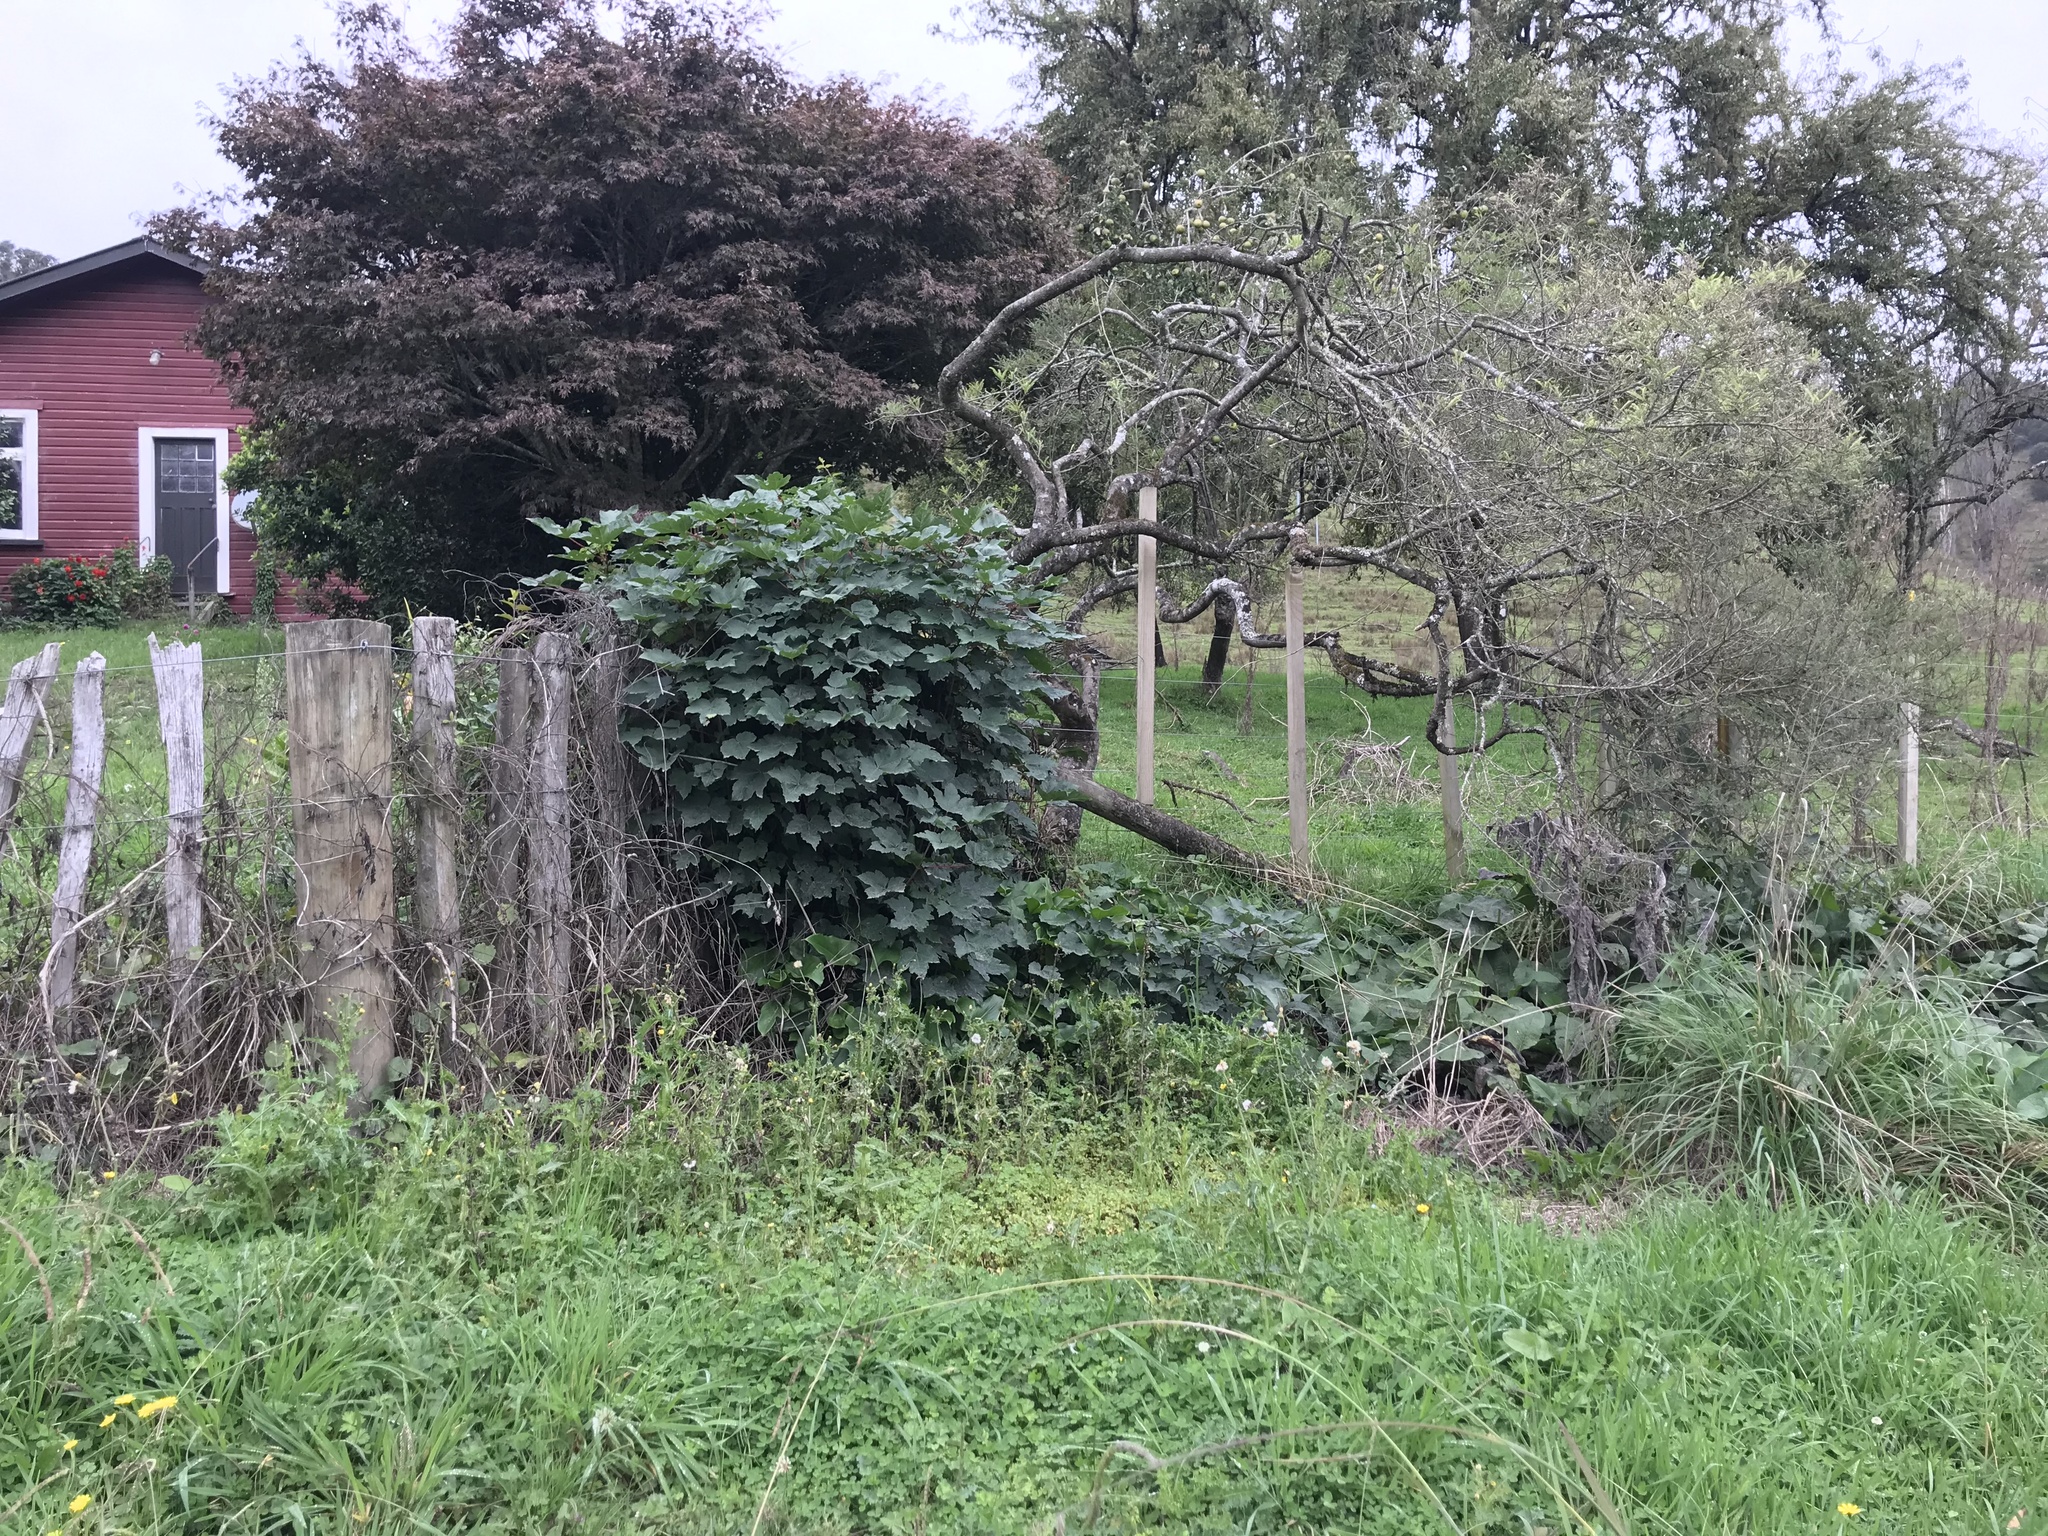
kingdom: Plantae
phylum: Tracheophyta
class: Magnoliopsida
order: Sapindales
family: Sapindaceae
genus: Acer
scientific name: Acer pseudoplatanus
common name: Sycamore
